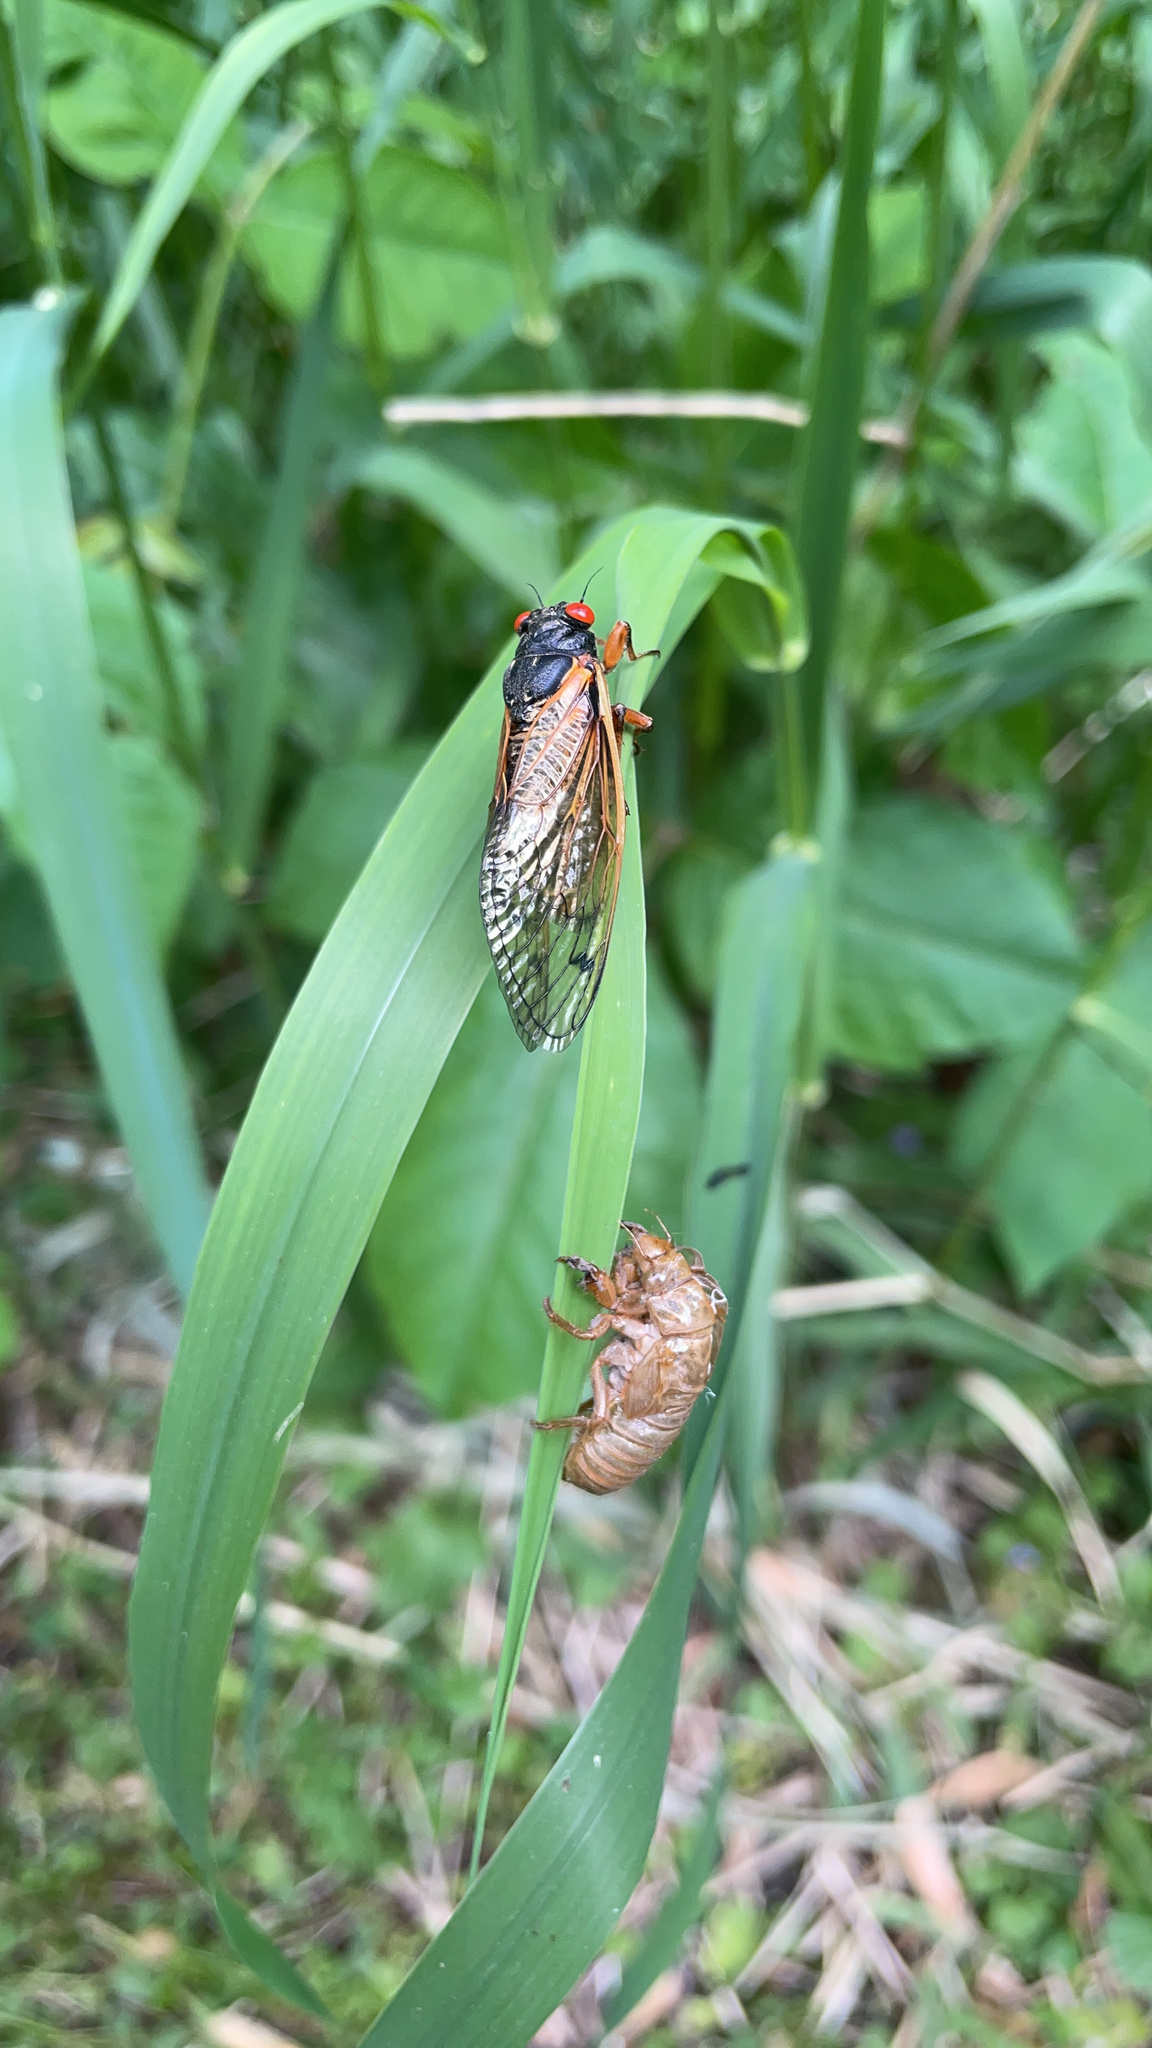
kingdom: Animalia
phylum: Arthropoda
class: Insecta
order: Hemiptera
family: Cicadidae
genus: Magicicada
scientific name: Magicicada
